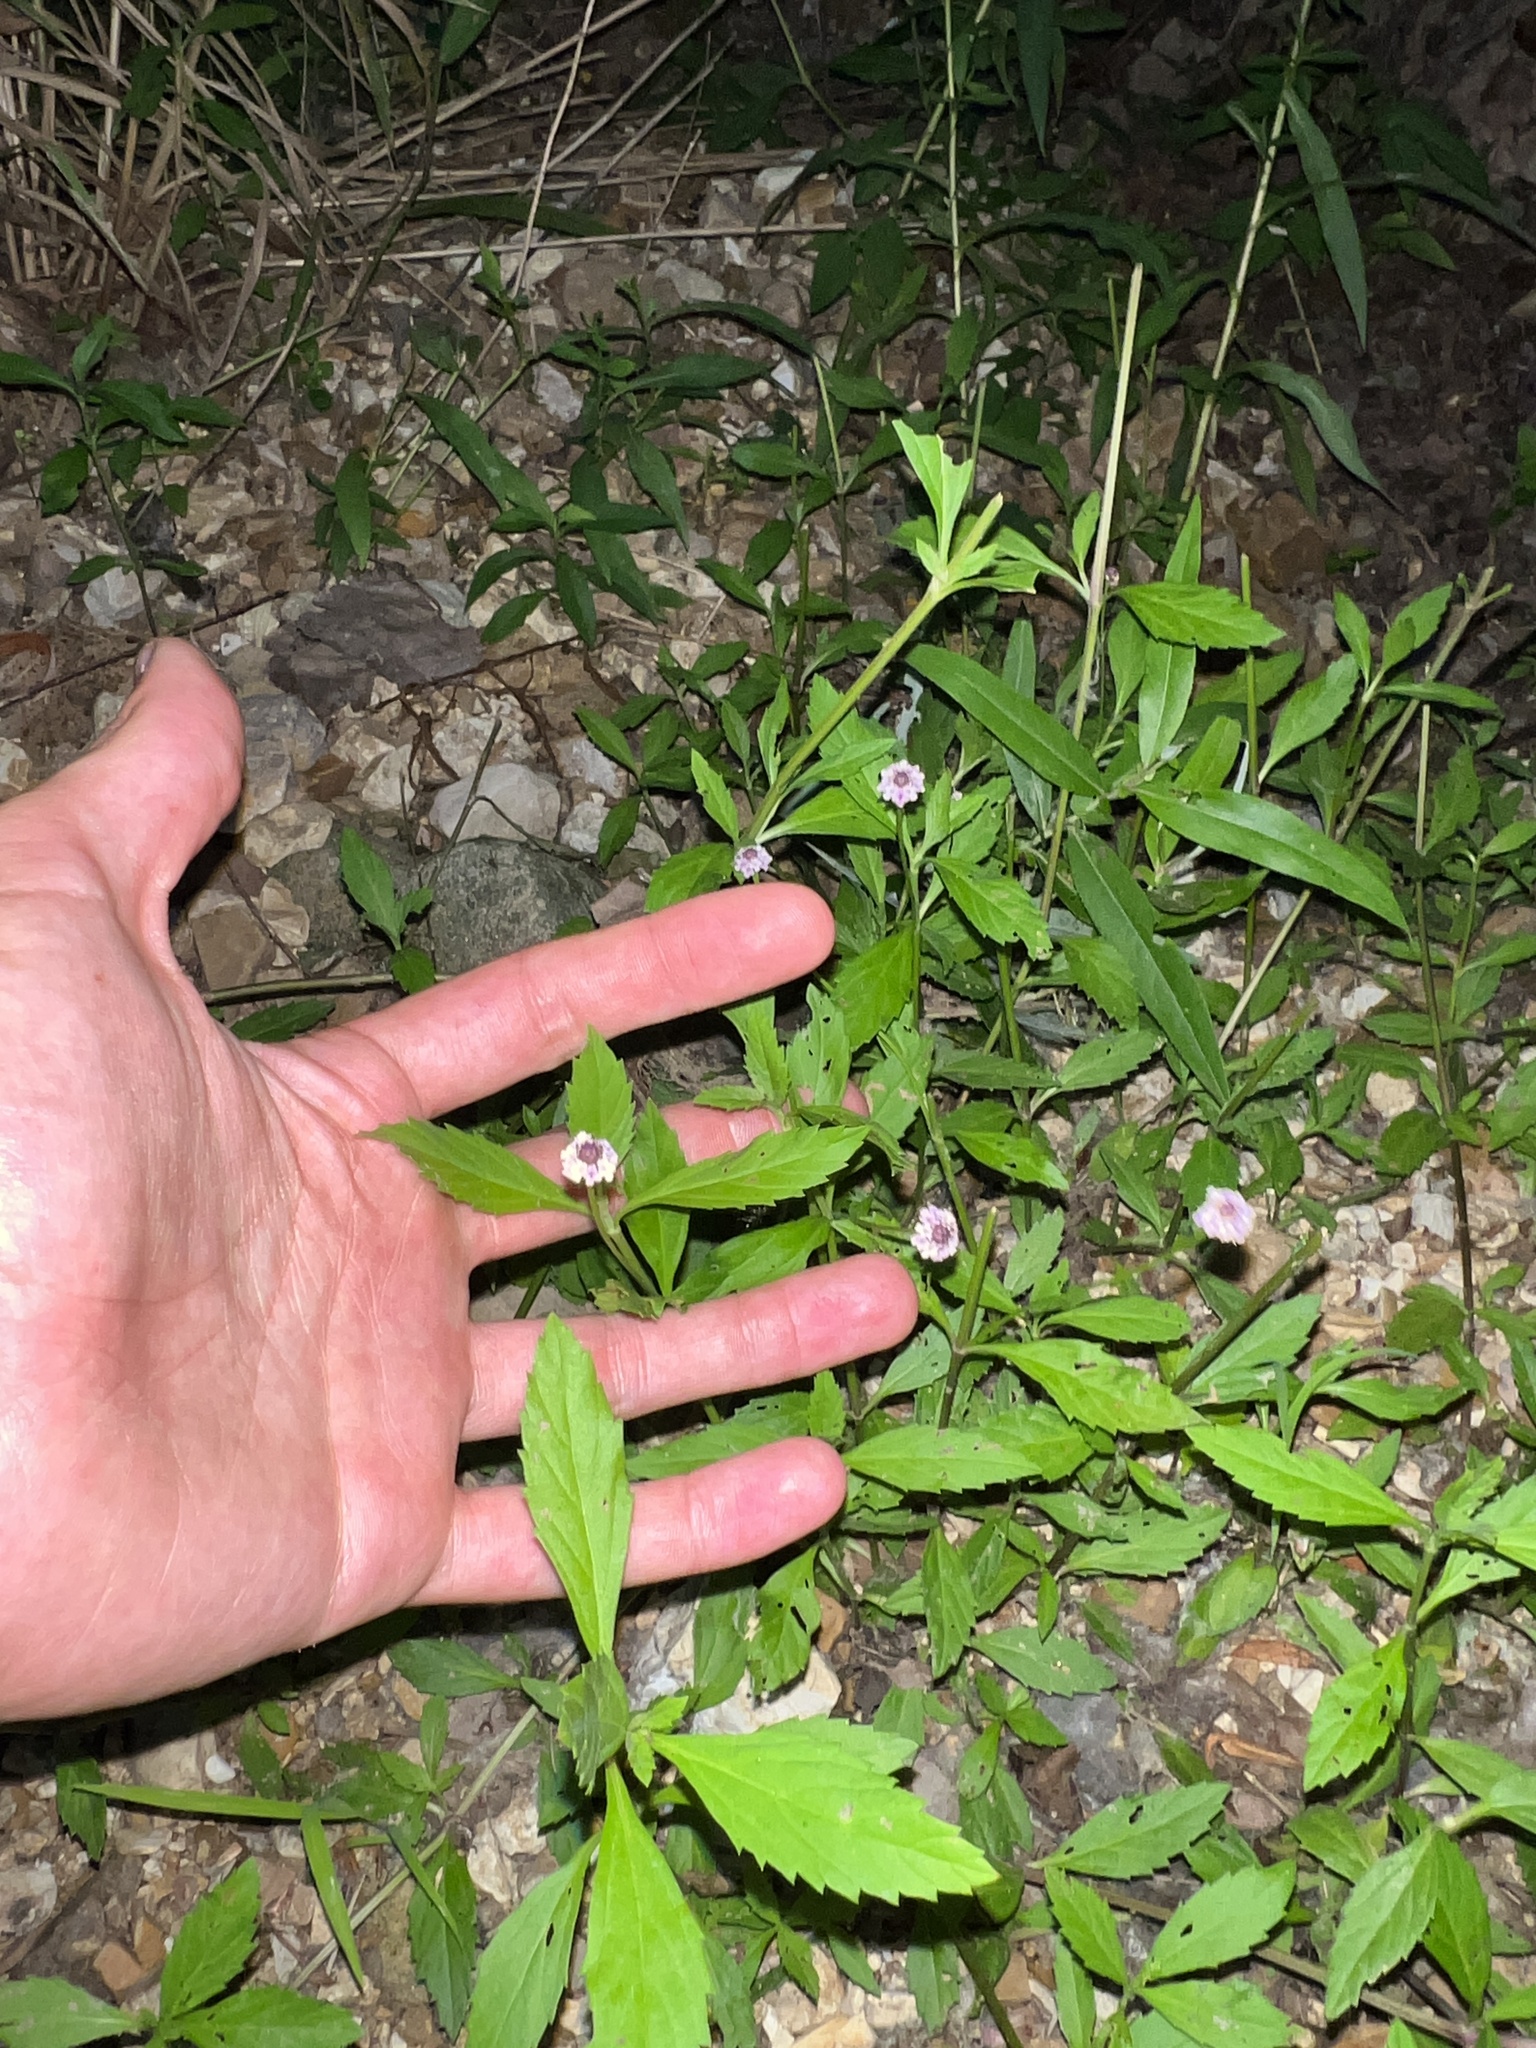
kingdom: Plantae
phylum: Tracheophyta
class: Magnoliopsida
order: Lamiales
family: Verbenaceae
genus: Phyla
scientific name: Phyla lanceolata
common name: Northern fogfruit
